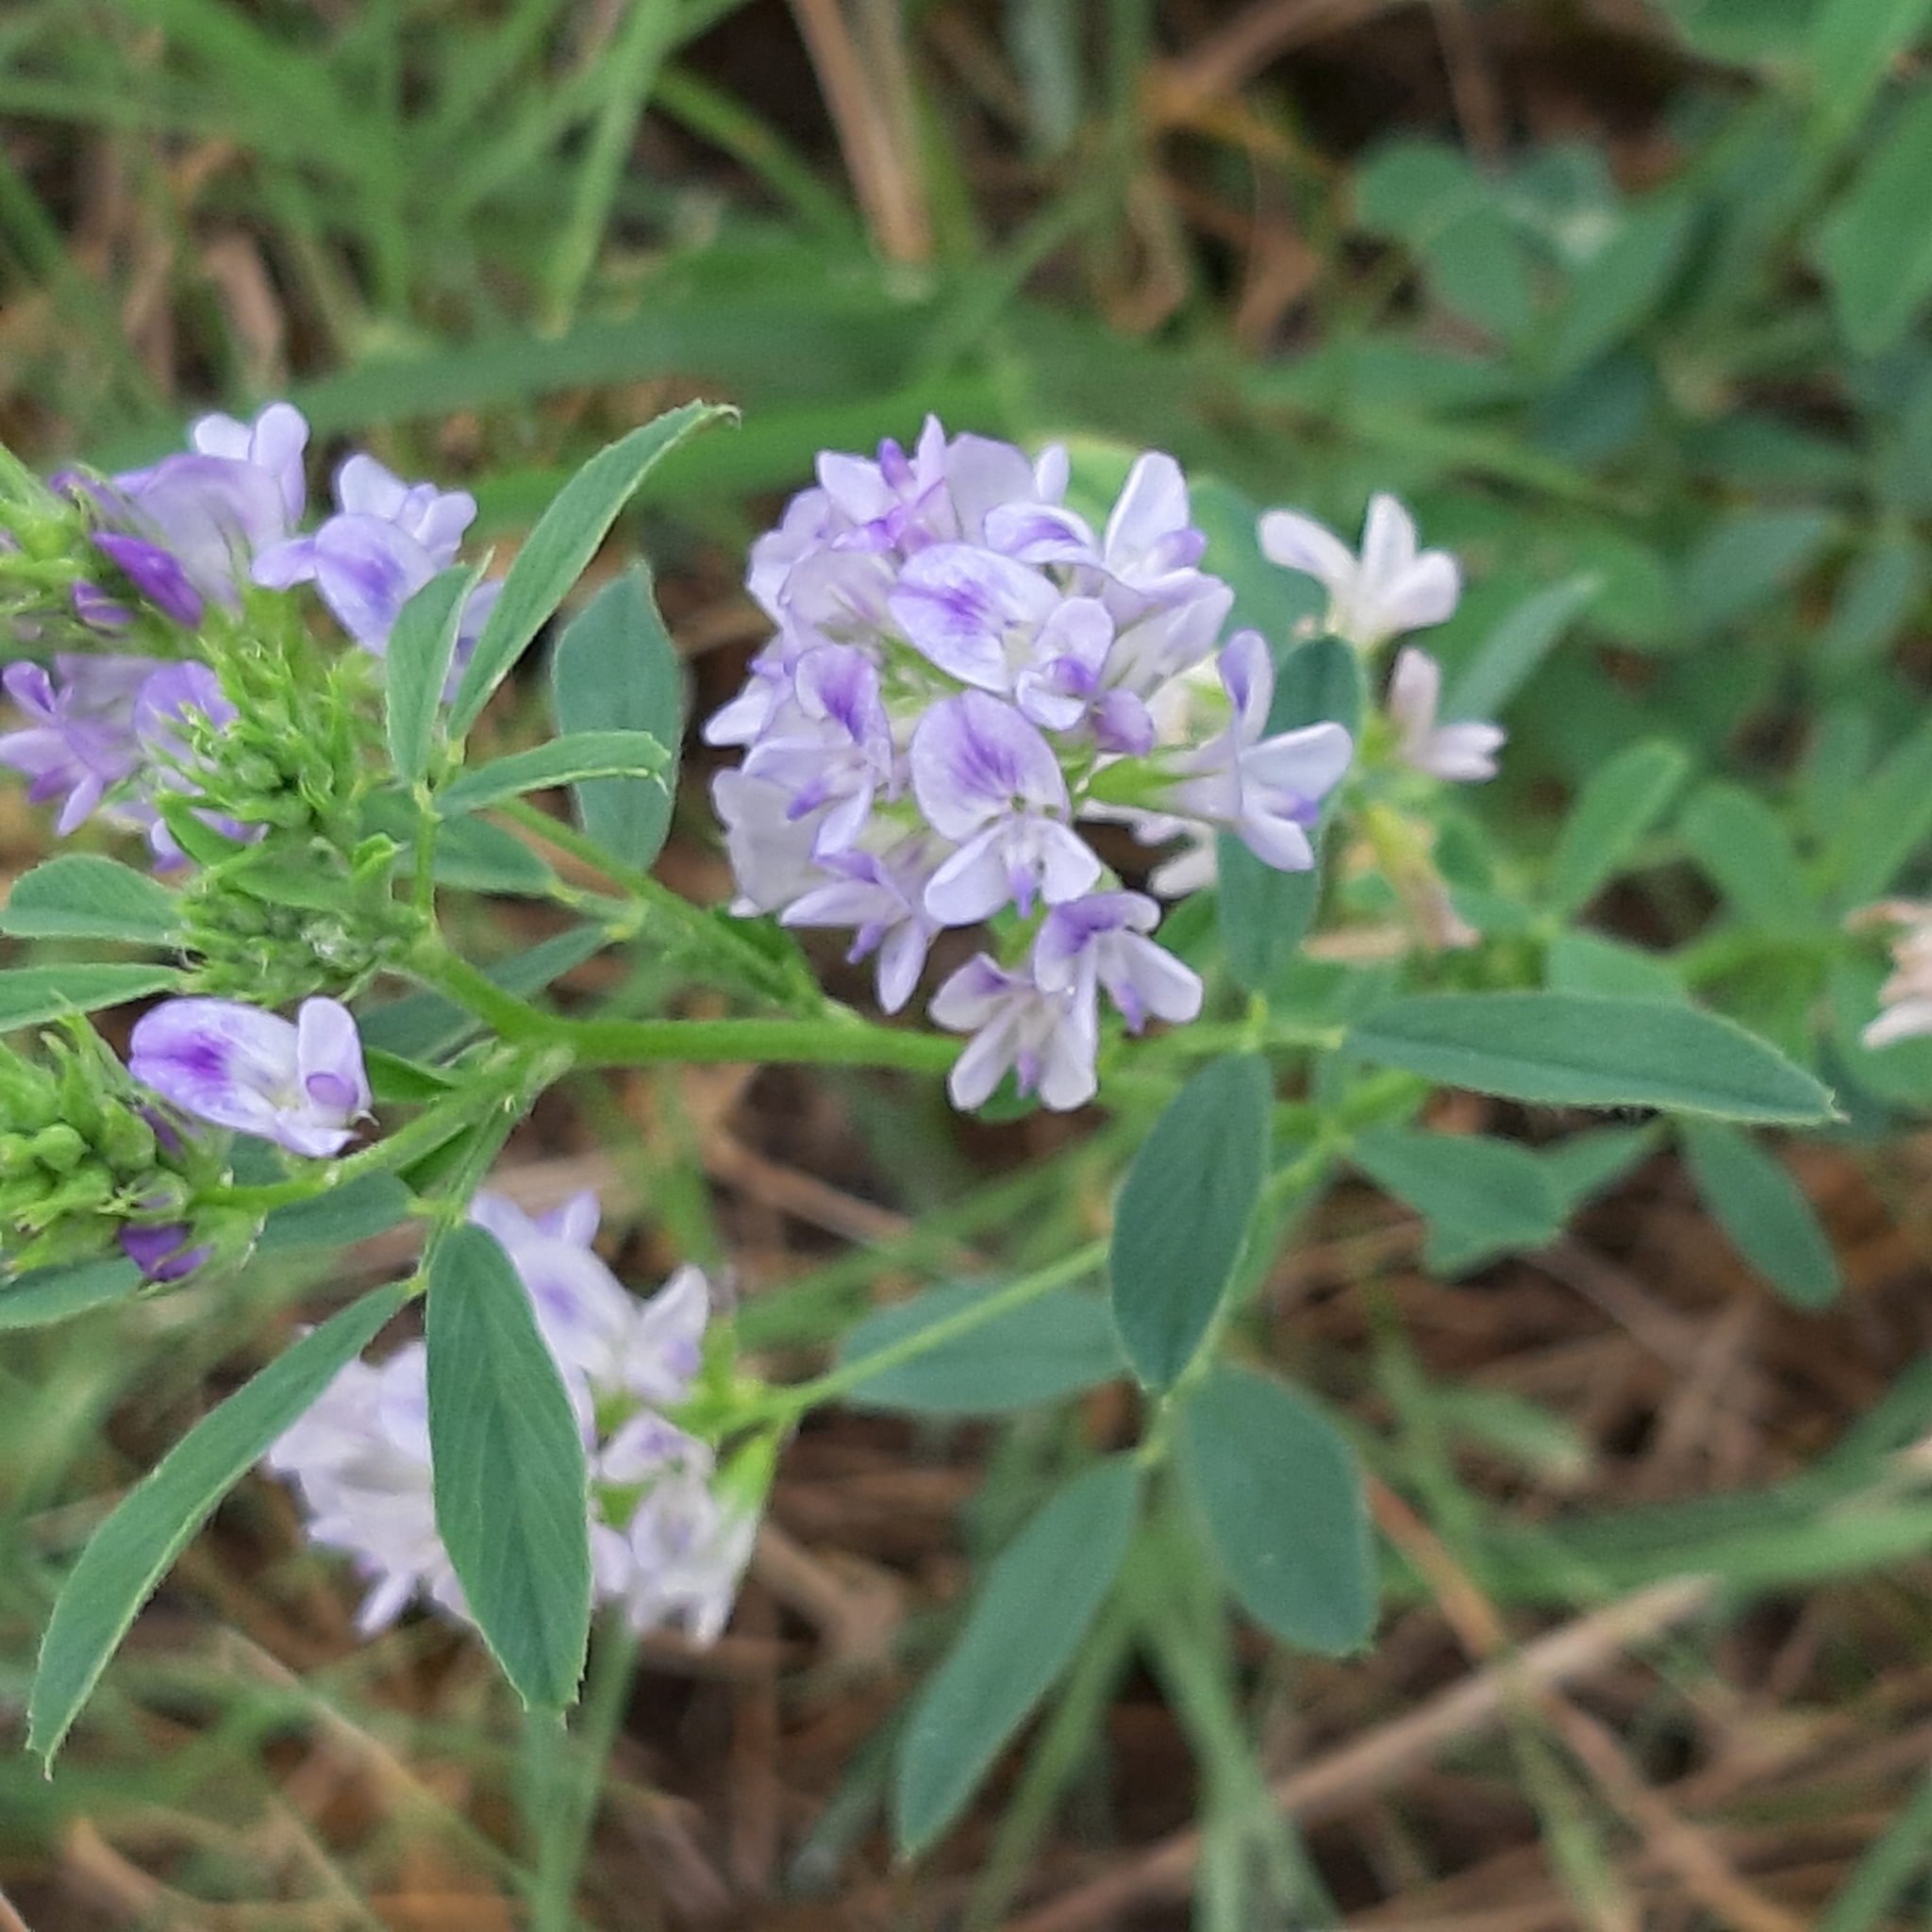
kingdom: Plantae
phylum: Tracheophyta
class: Magnoliopsida
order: Fabales
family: Fabaceae
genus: Medicago
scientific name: Medicago sativa
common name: Alfalfa
